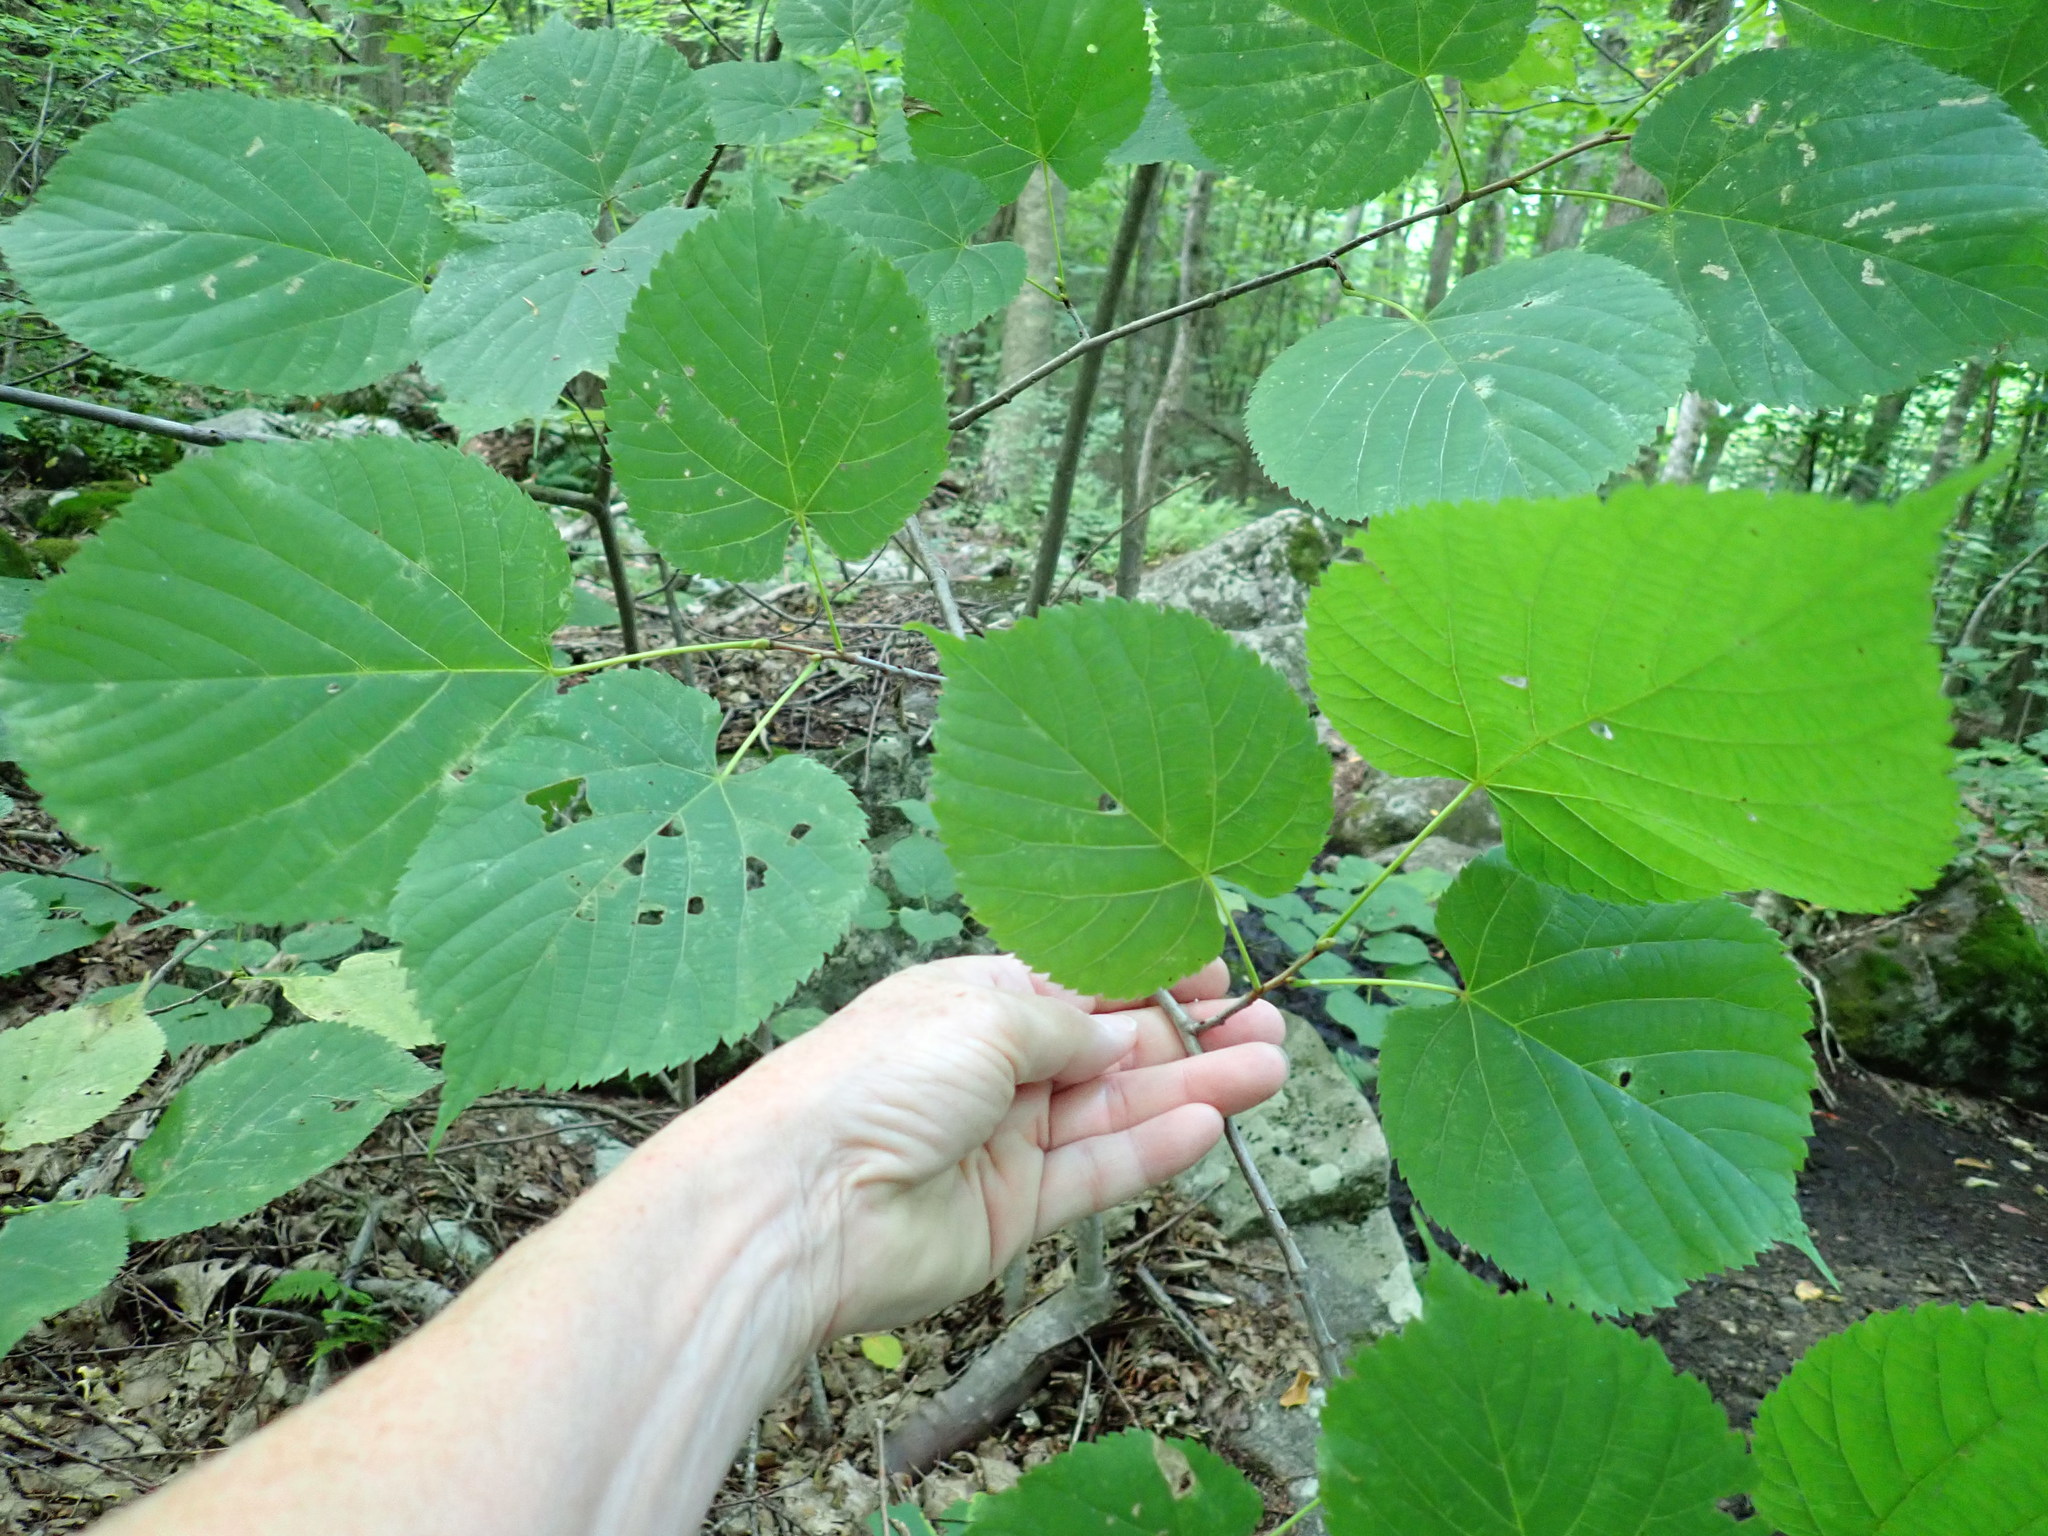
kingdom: Plantae
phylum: Tracheophyta
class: Magnoliopsida
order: Malvales
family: Malvaceae
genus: Tilia
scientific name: Tilia americana
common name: Basswood
